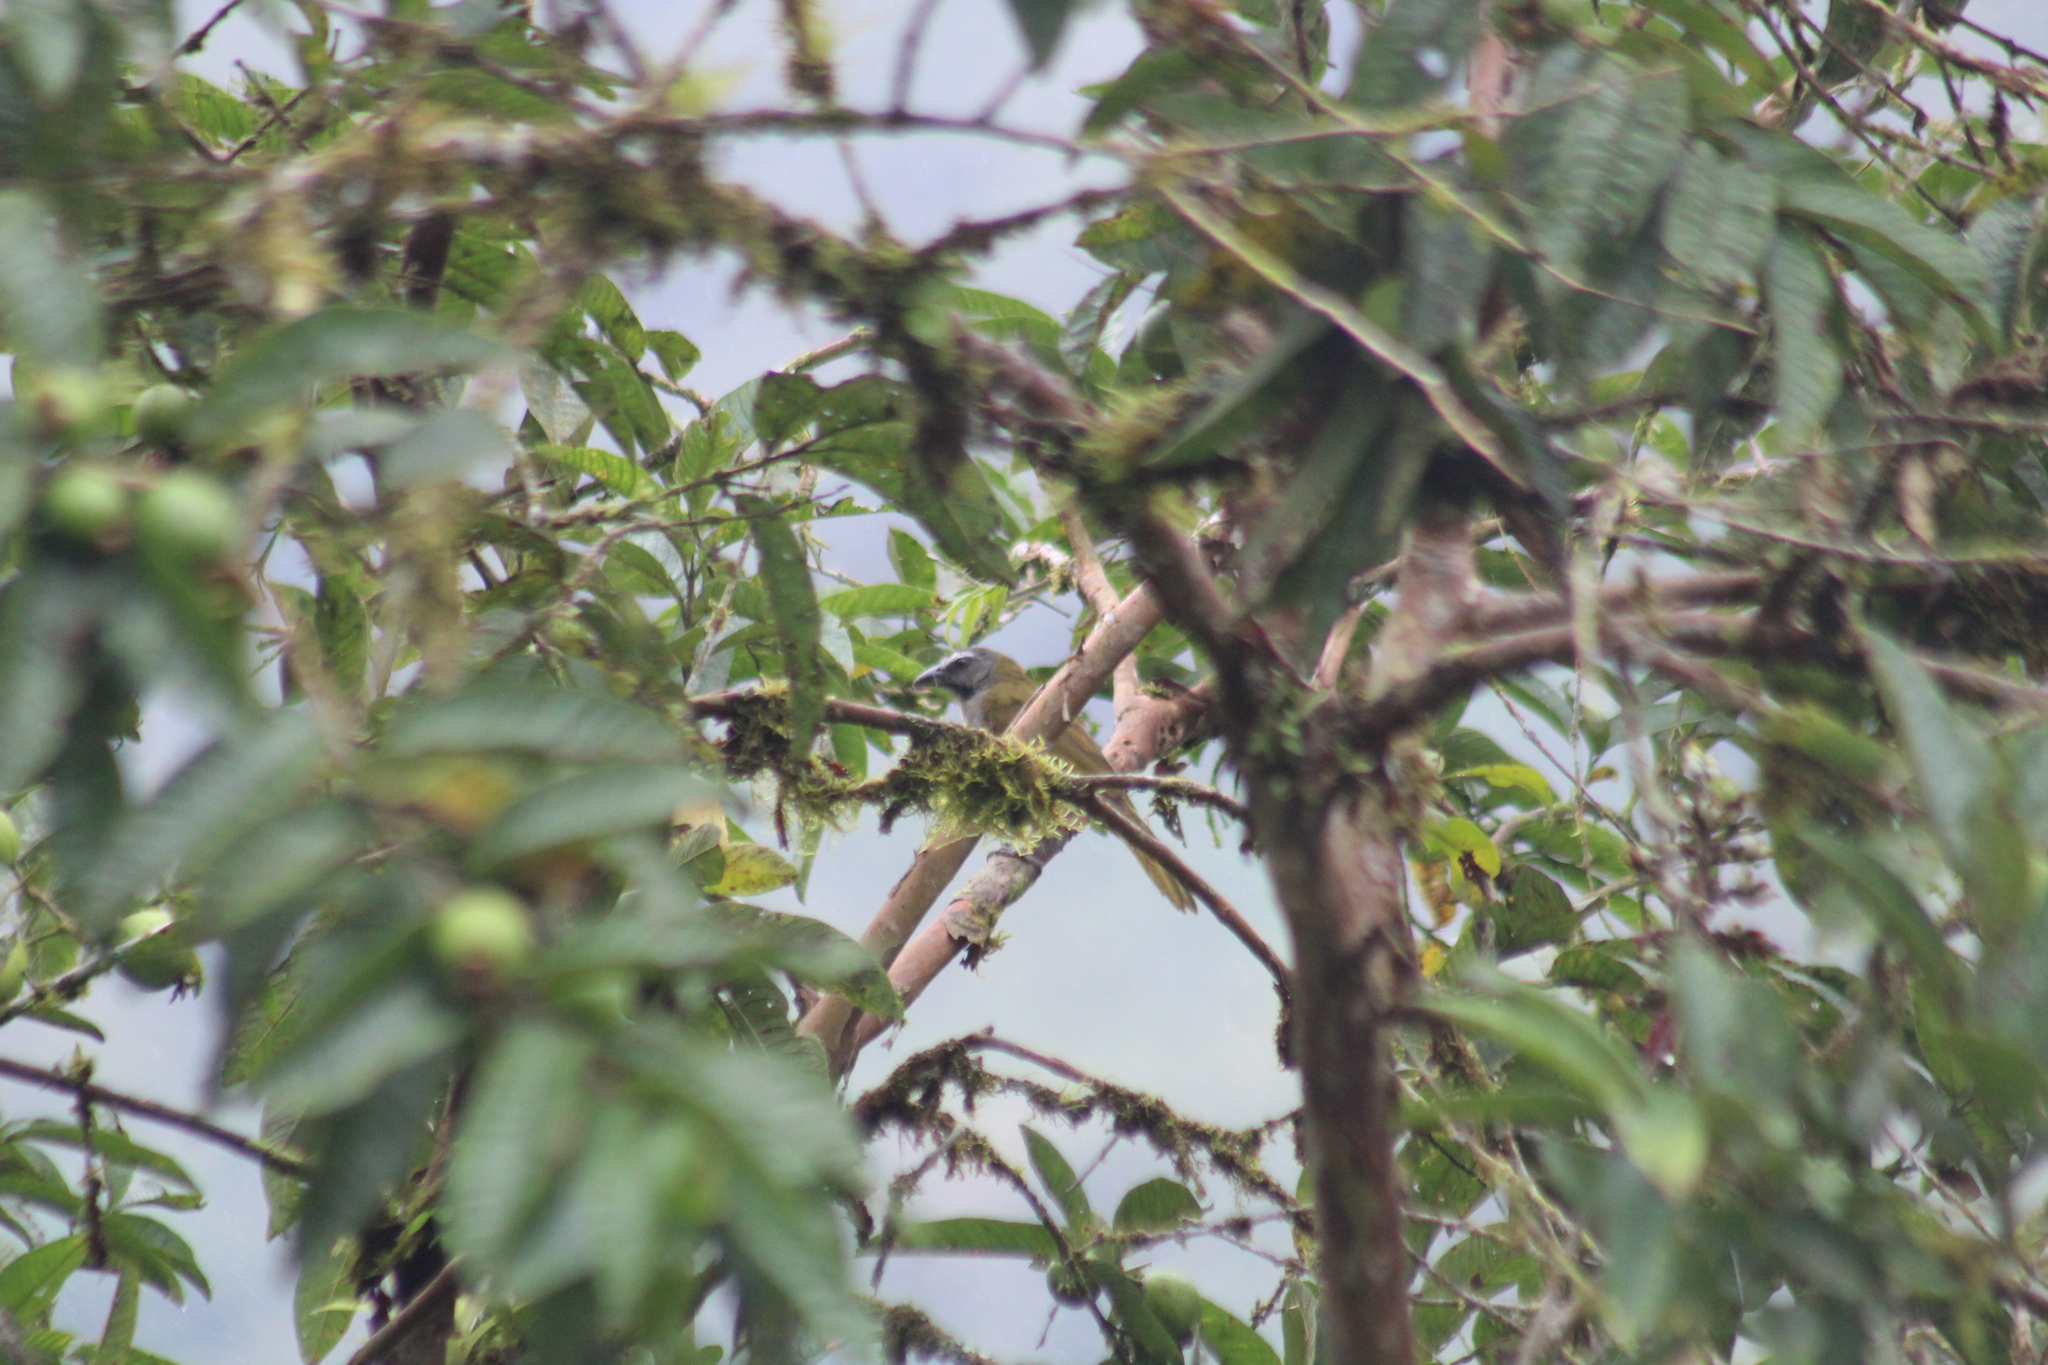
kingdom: Animalia
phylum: Chordata
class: Aves
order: Passeriformes
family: Thraupidae
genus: Saltator
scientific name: Saltator maximus
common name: Buff-throated saltator
